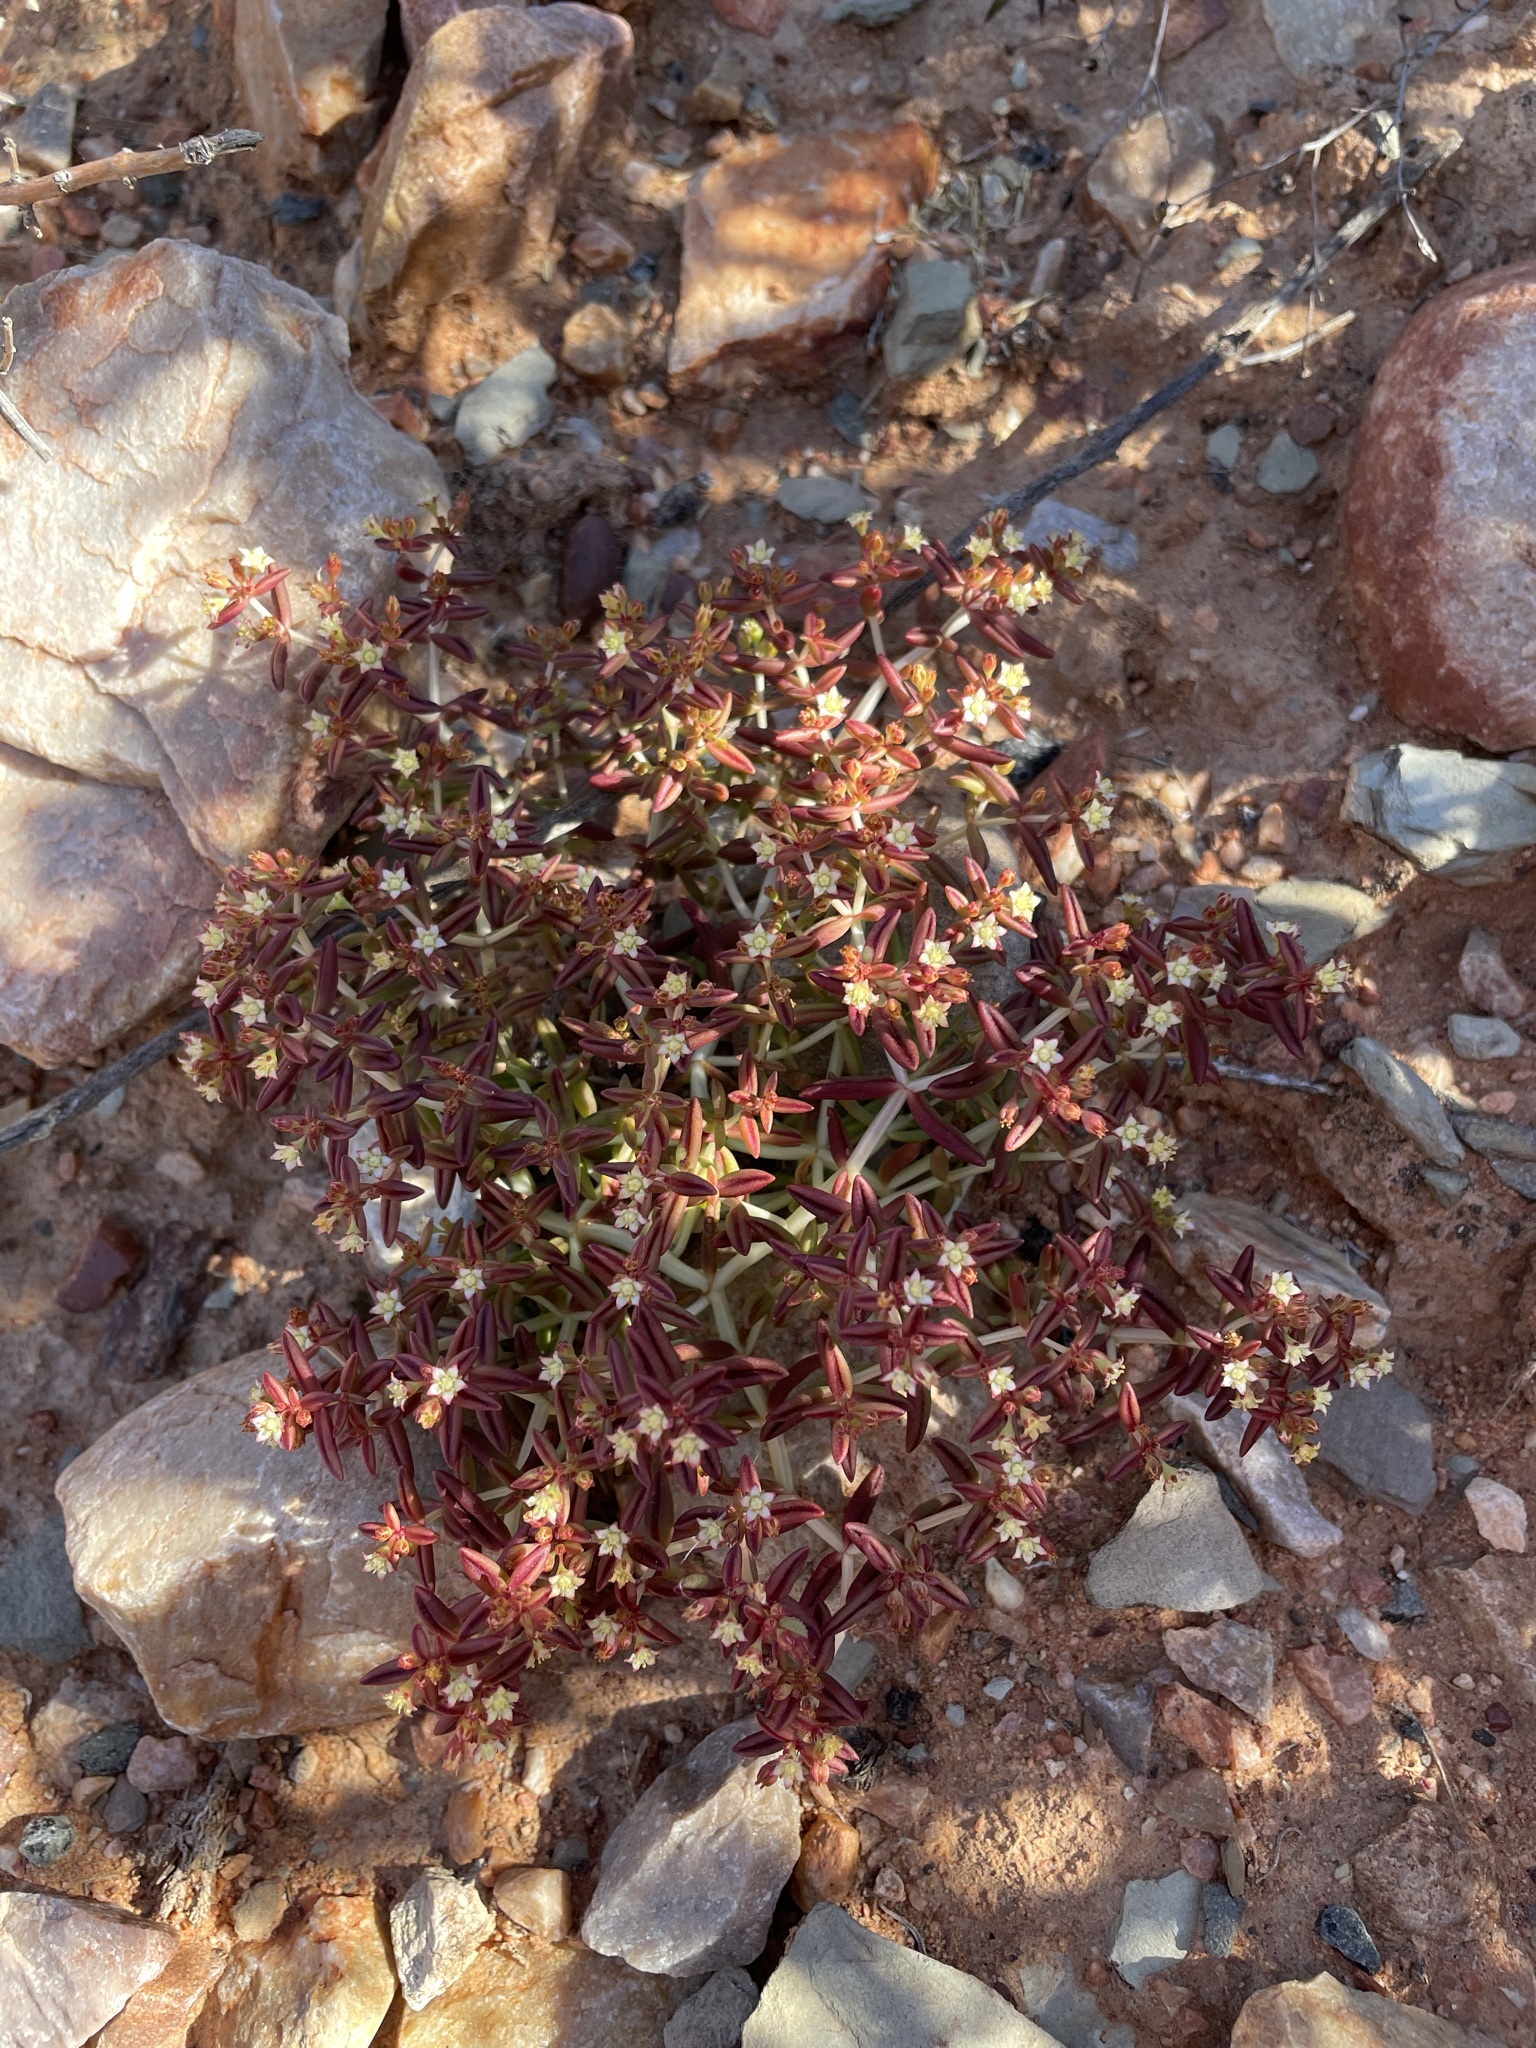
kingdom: Plantae
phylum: Tracheophyta
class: Magnoliopsida
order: Saxifragales
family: Crassulaceae
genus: Crassula
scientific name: Crassula expansa
